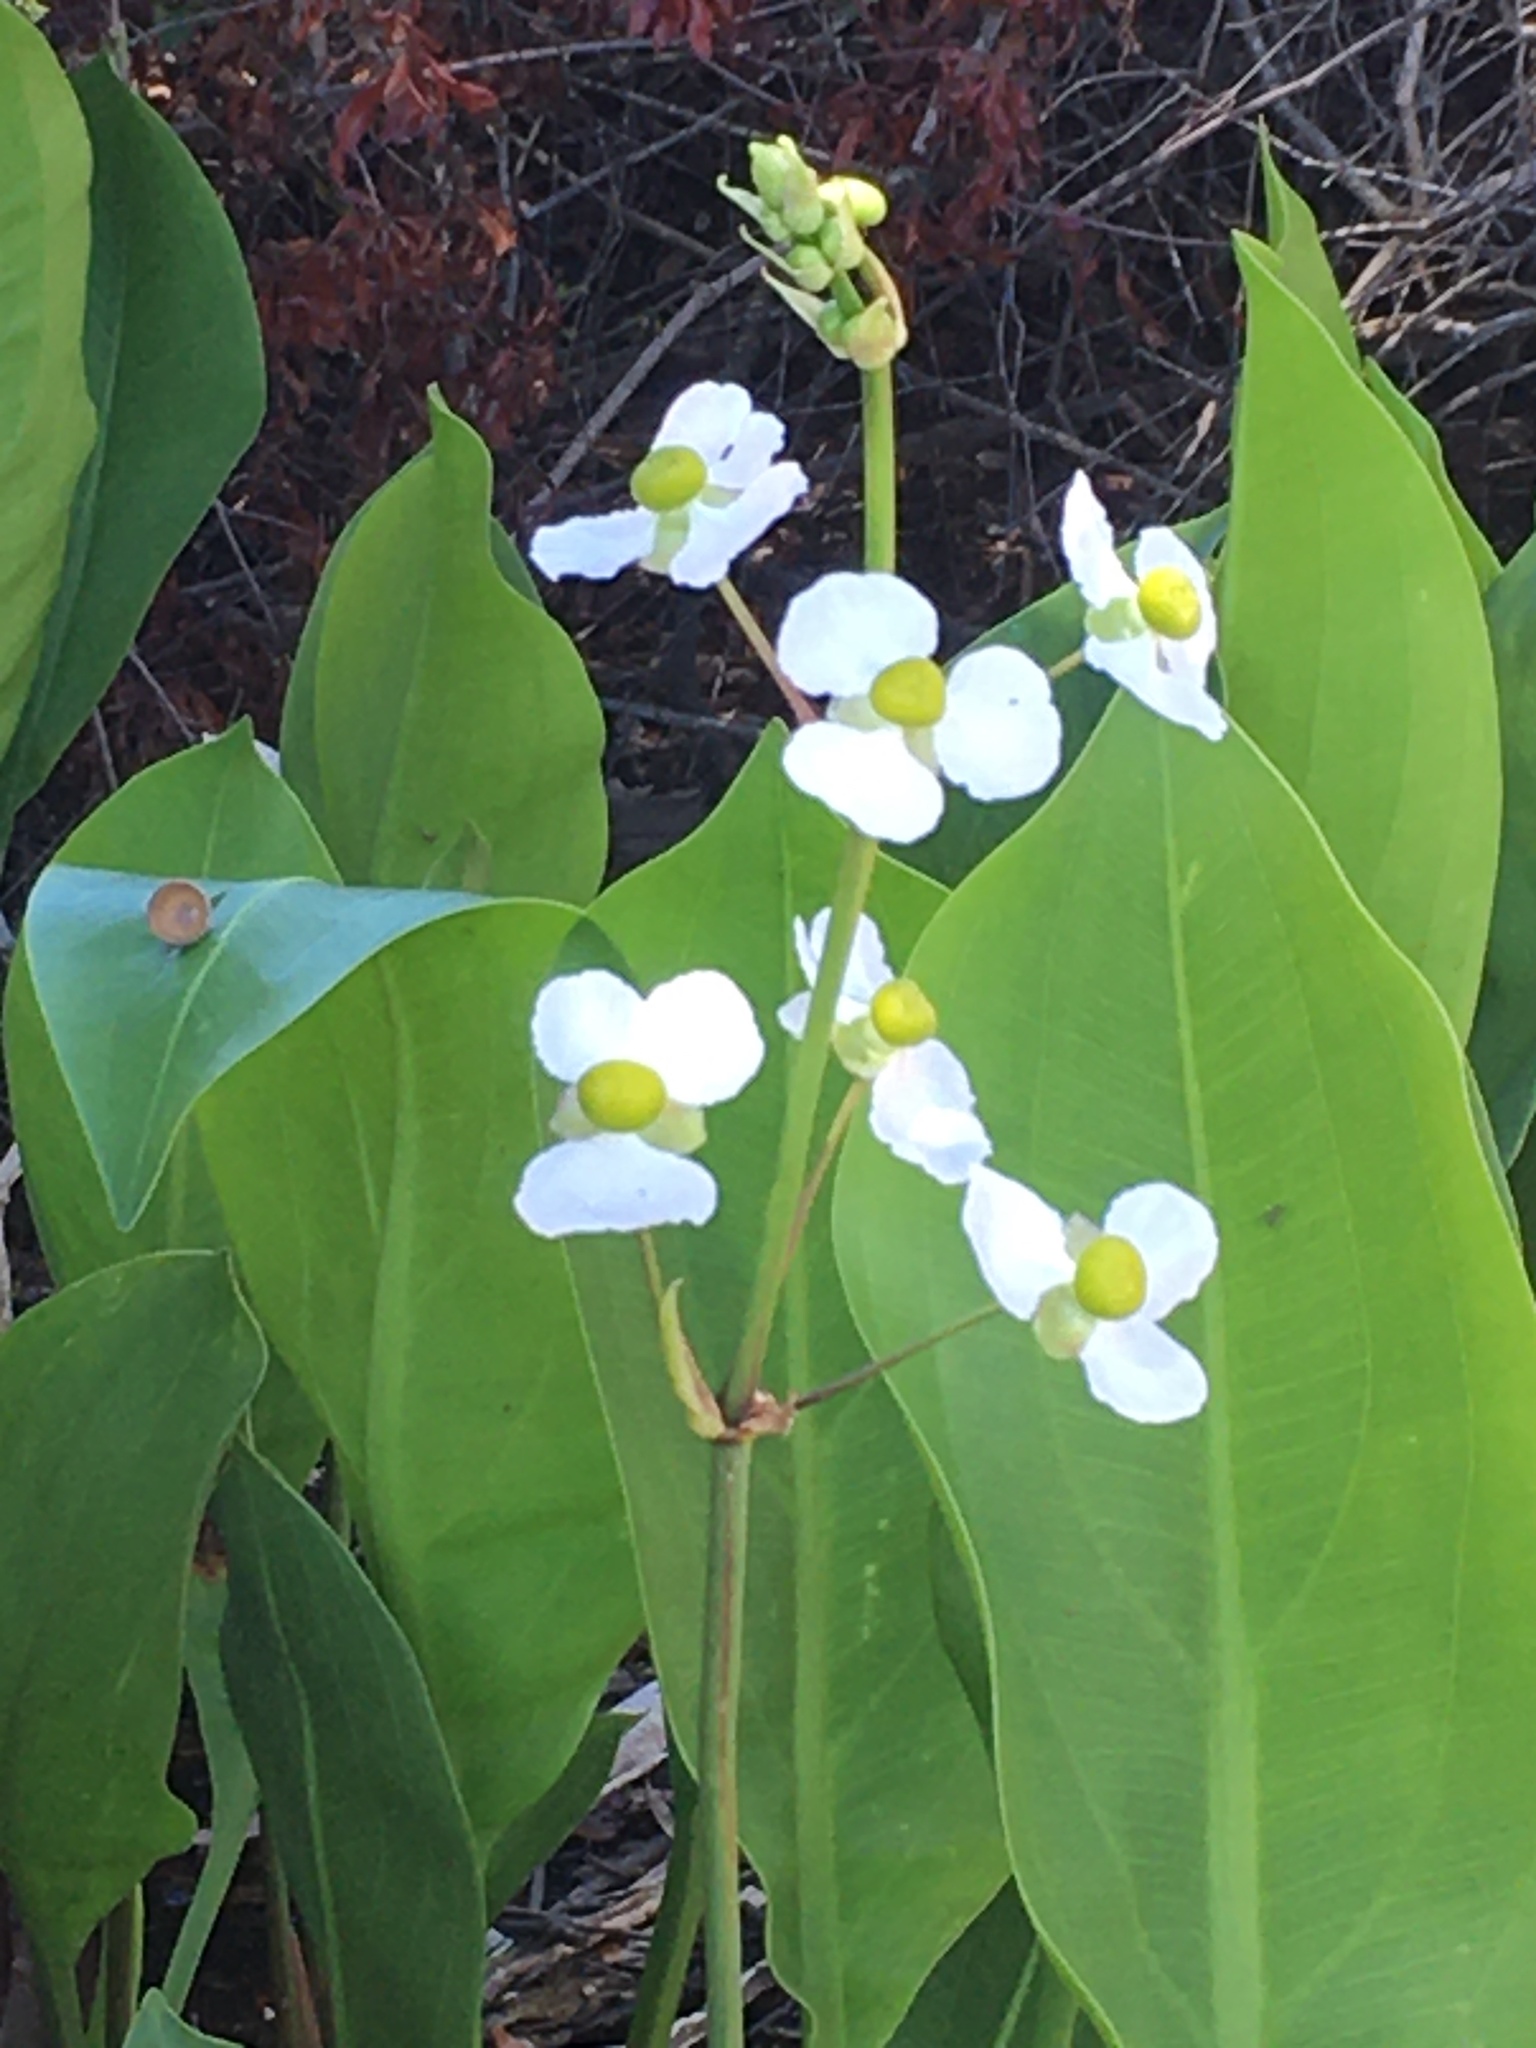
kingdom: Plantae
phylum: Tracheophyta
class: Liliopsida
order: Alismatales
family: Alismataceae
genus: Sagittaria
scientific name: Sagittaria lancifolia
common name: Lance-leaf arrowhead
